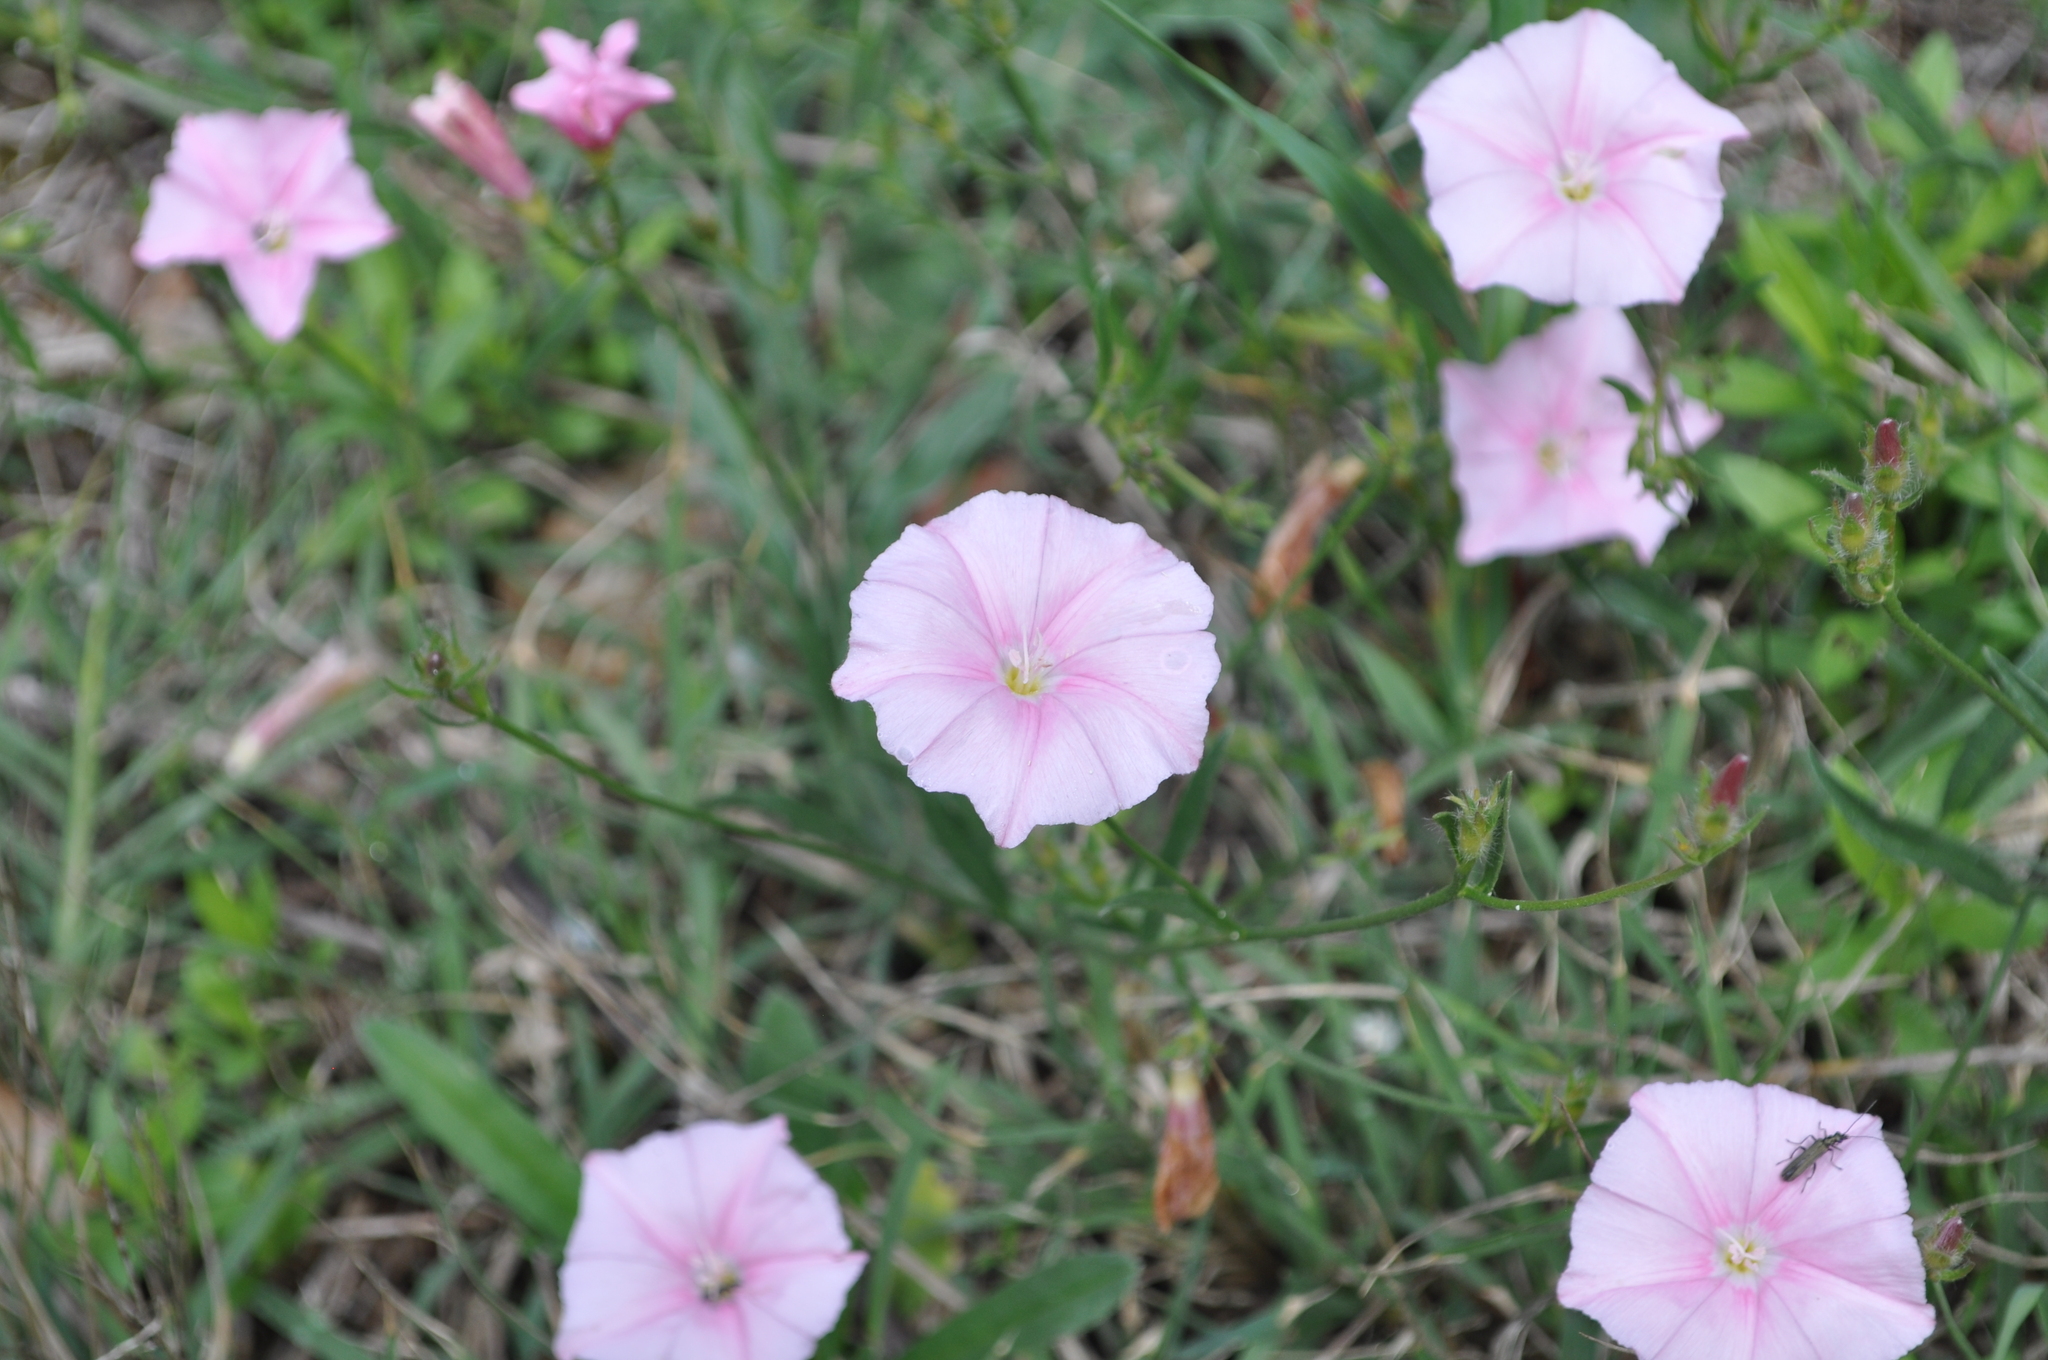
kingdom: Plantae
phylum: Tracheophyta
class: Magnoliopsida
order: Solanales
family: Convolvulaceae
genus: Convolvulus
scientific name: Convolvulus cantabrica
